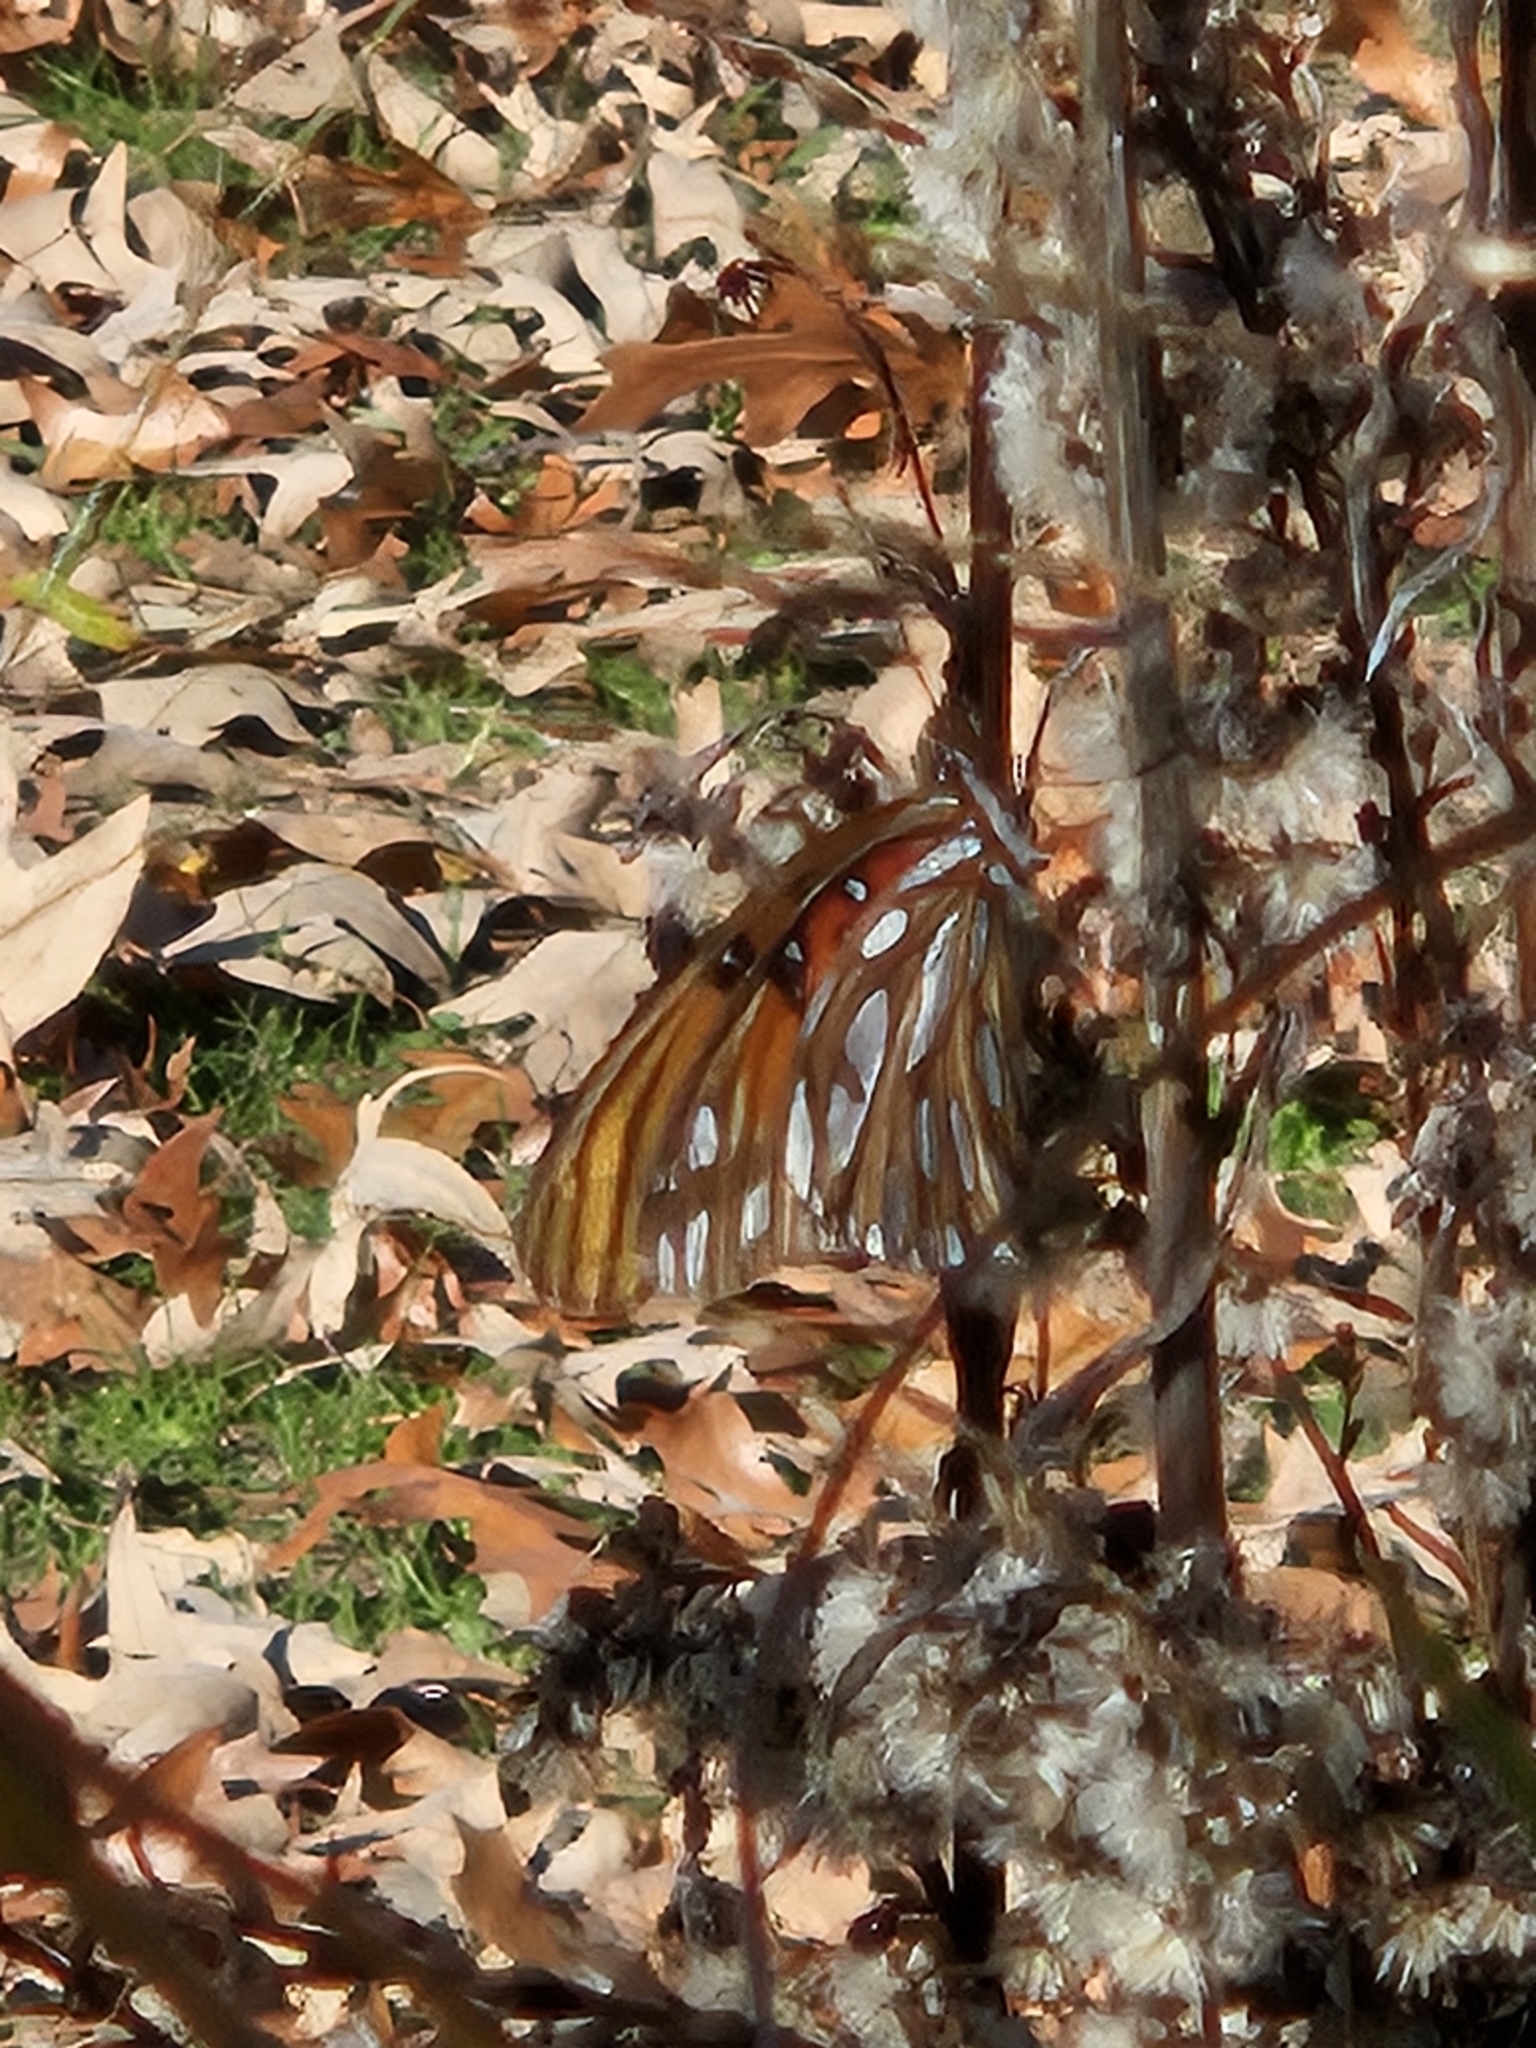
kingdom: Animalia
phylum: Arthropoda
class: Insecta
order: Lepidoptera
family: Nymphalidae
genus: Dione
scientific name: Dione vanillae
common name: Gulf fritillary
